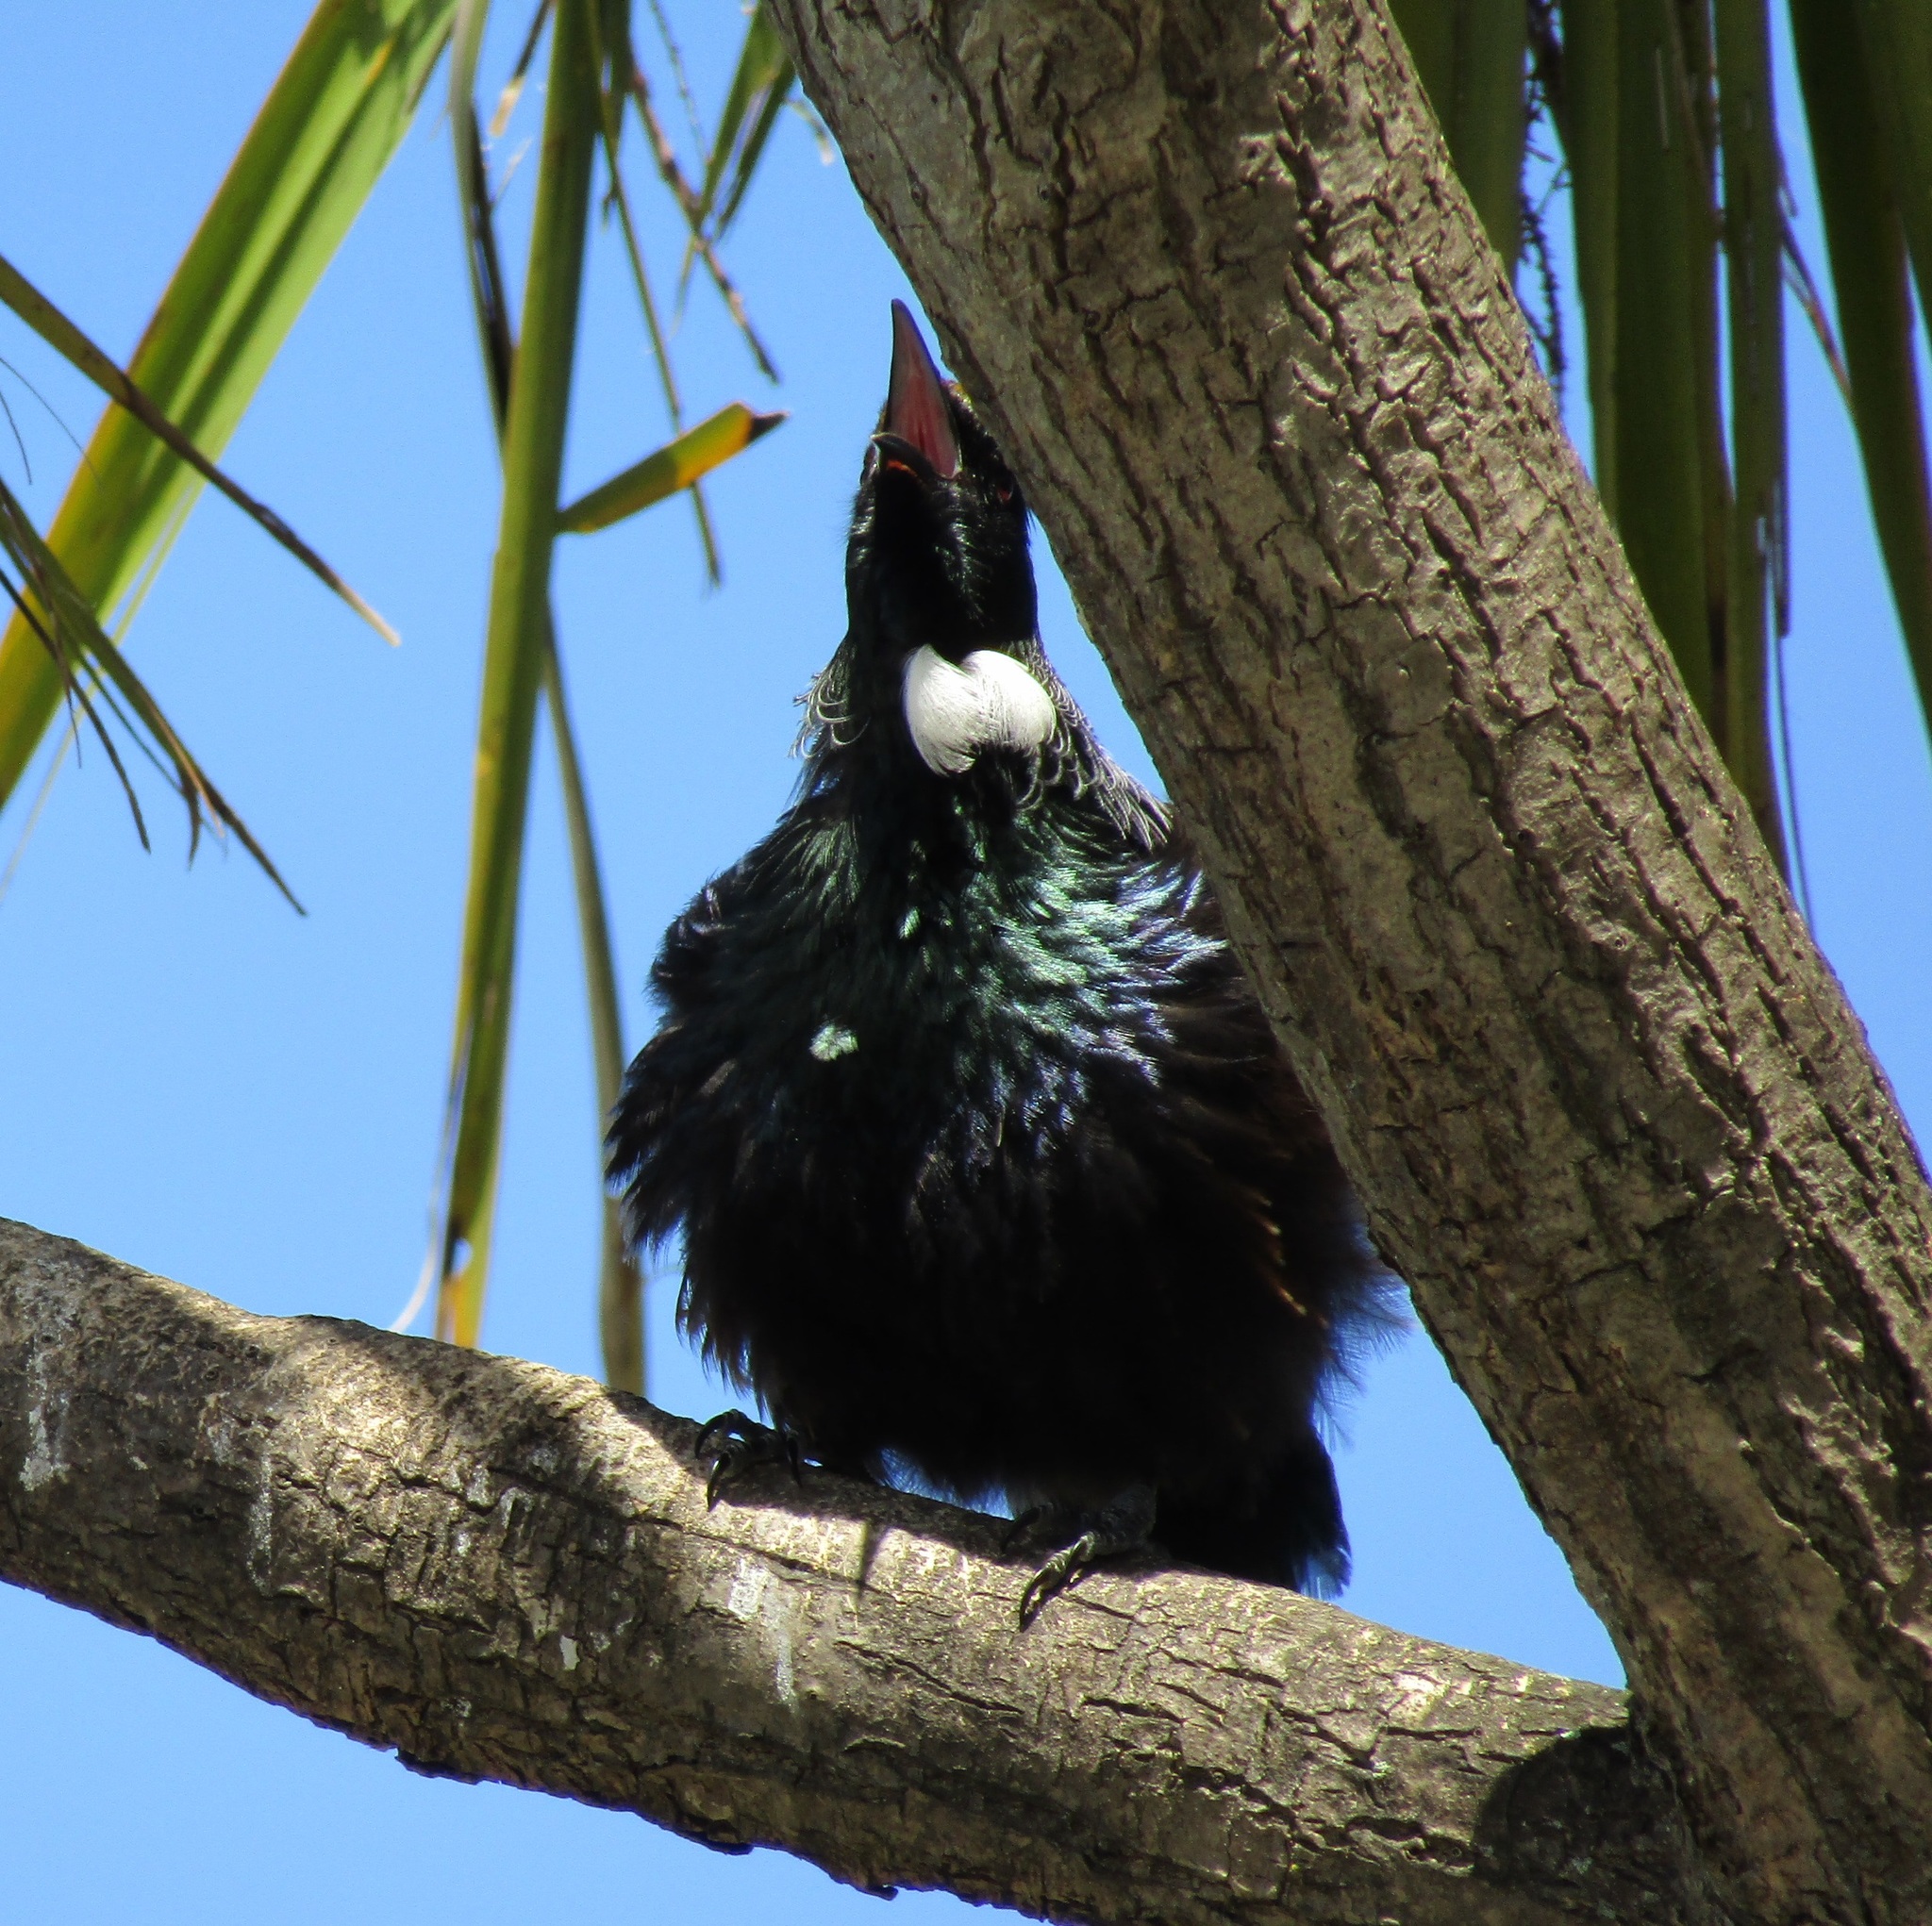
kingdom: Animalia
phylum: Chordata
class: Aves
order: Passeriformes
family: Meliphagidae
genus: Prosthemadera
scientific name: Prosthemadera novaeseelandiae
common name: Tui
